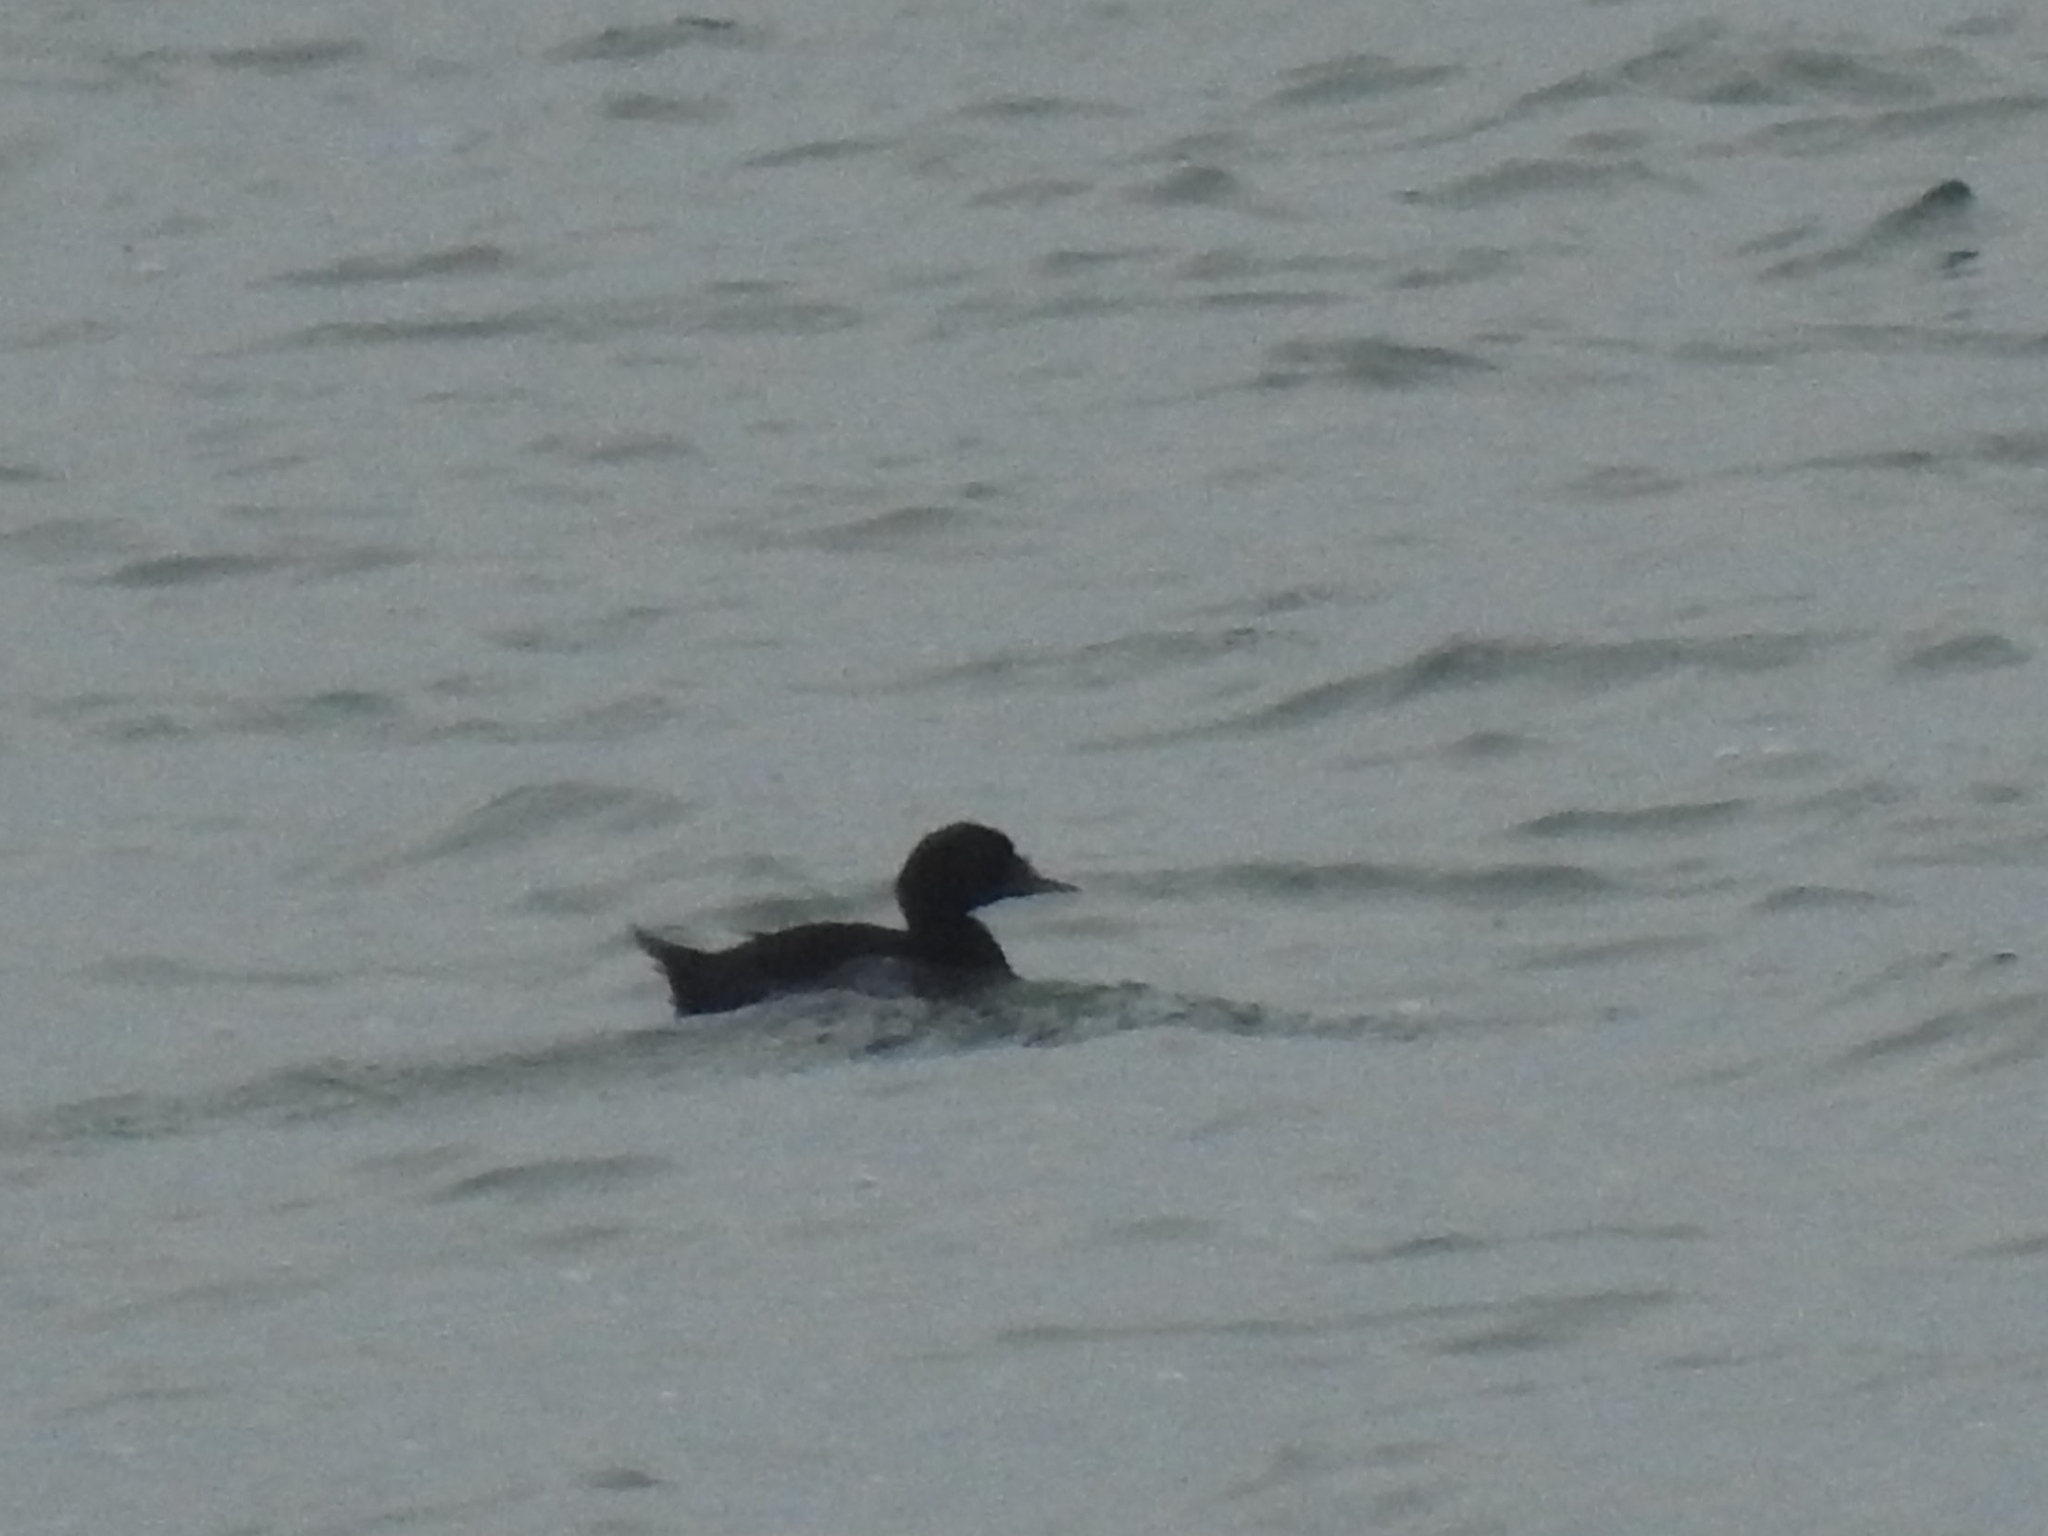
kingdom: Animalia
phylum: Chordata
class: Aves
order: Anseriformes
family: Anatidae
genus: Melanitta
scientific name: Melanitta nigra
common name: Common scoter
